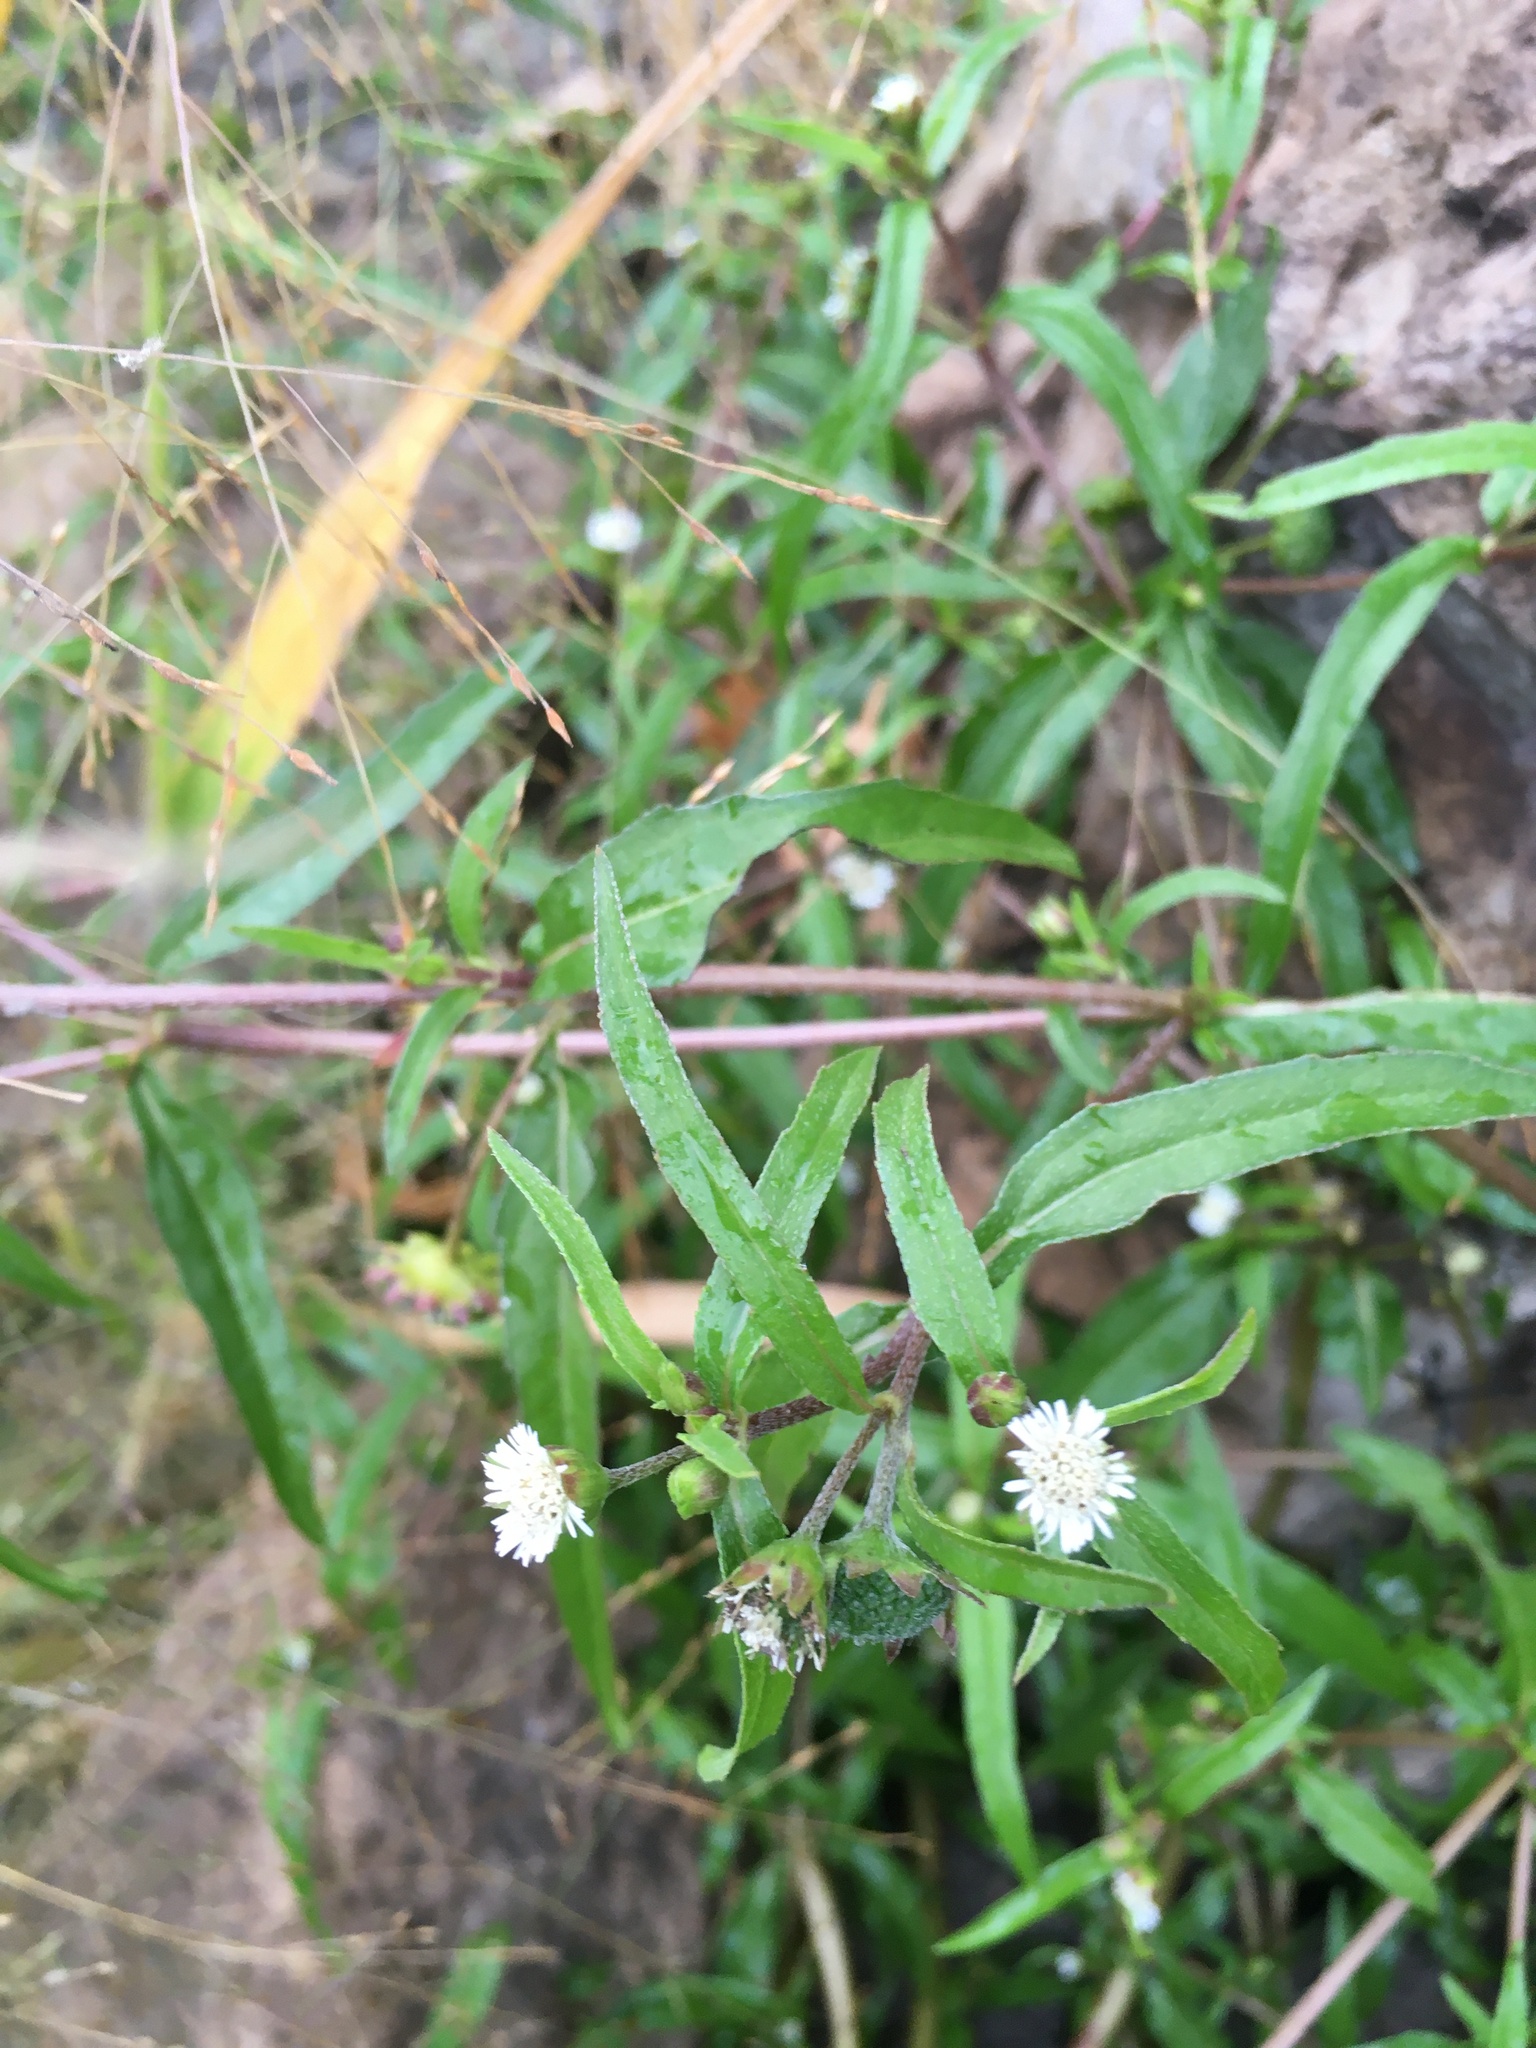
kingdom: Plantae
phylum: Tracheophyta
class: Magnoliopsida
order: Asterales
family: Asteraceae
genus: Eclipta
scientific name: Eclipta prostrata
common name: False daisy
